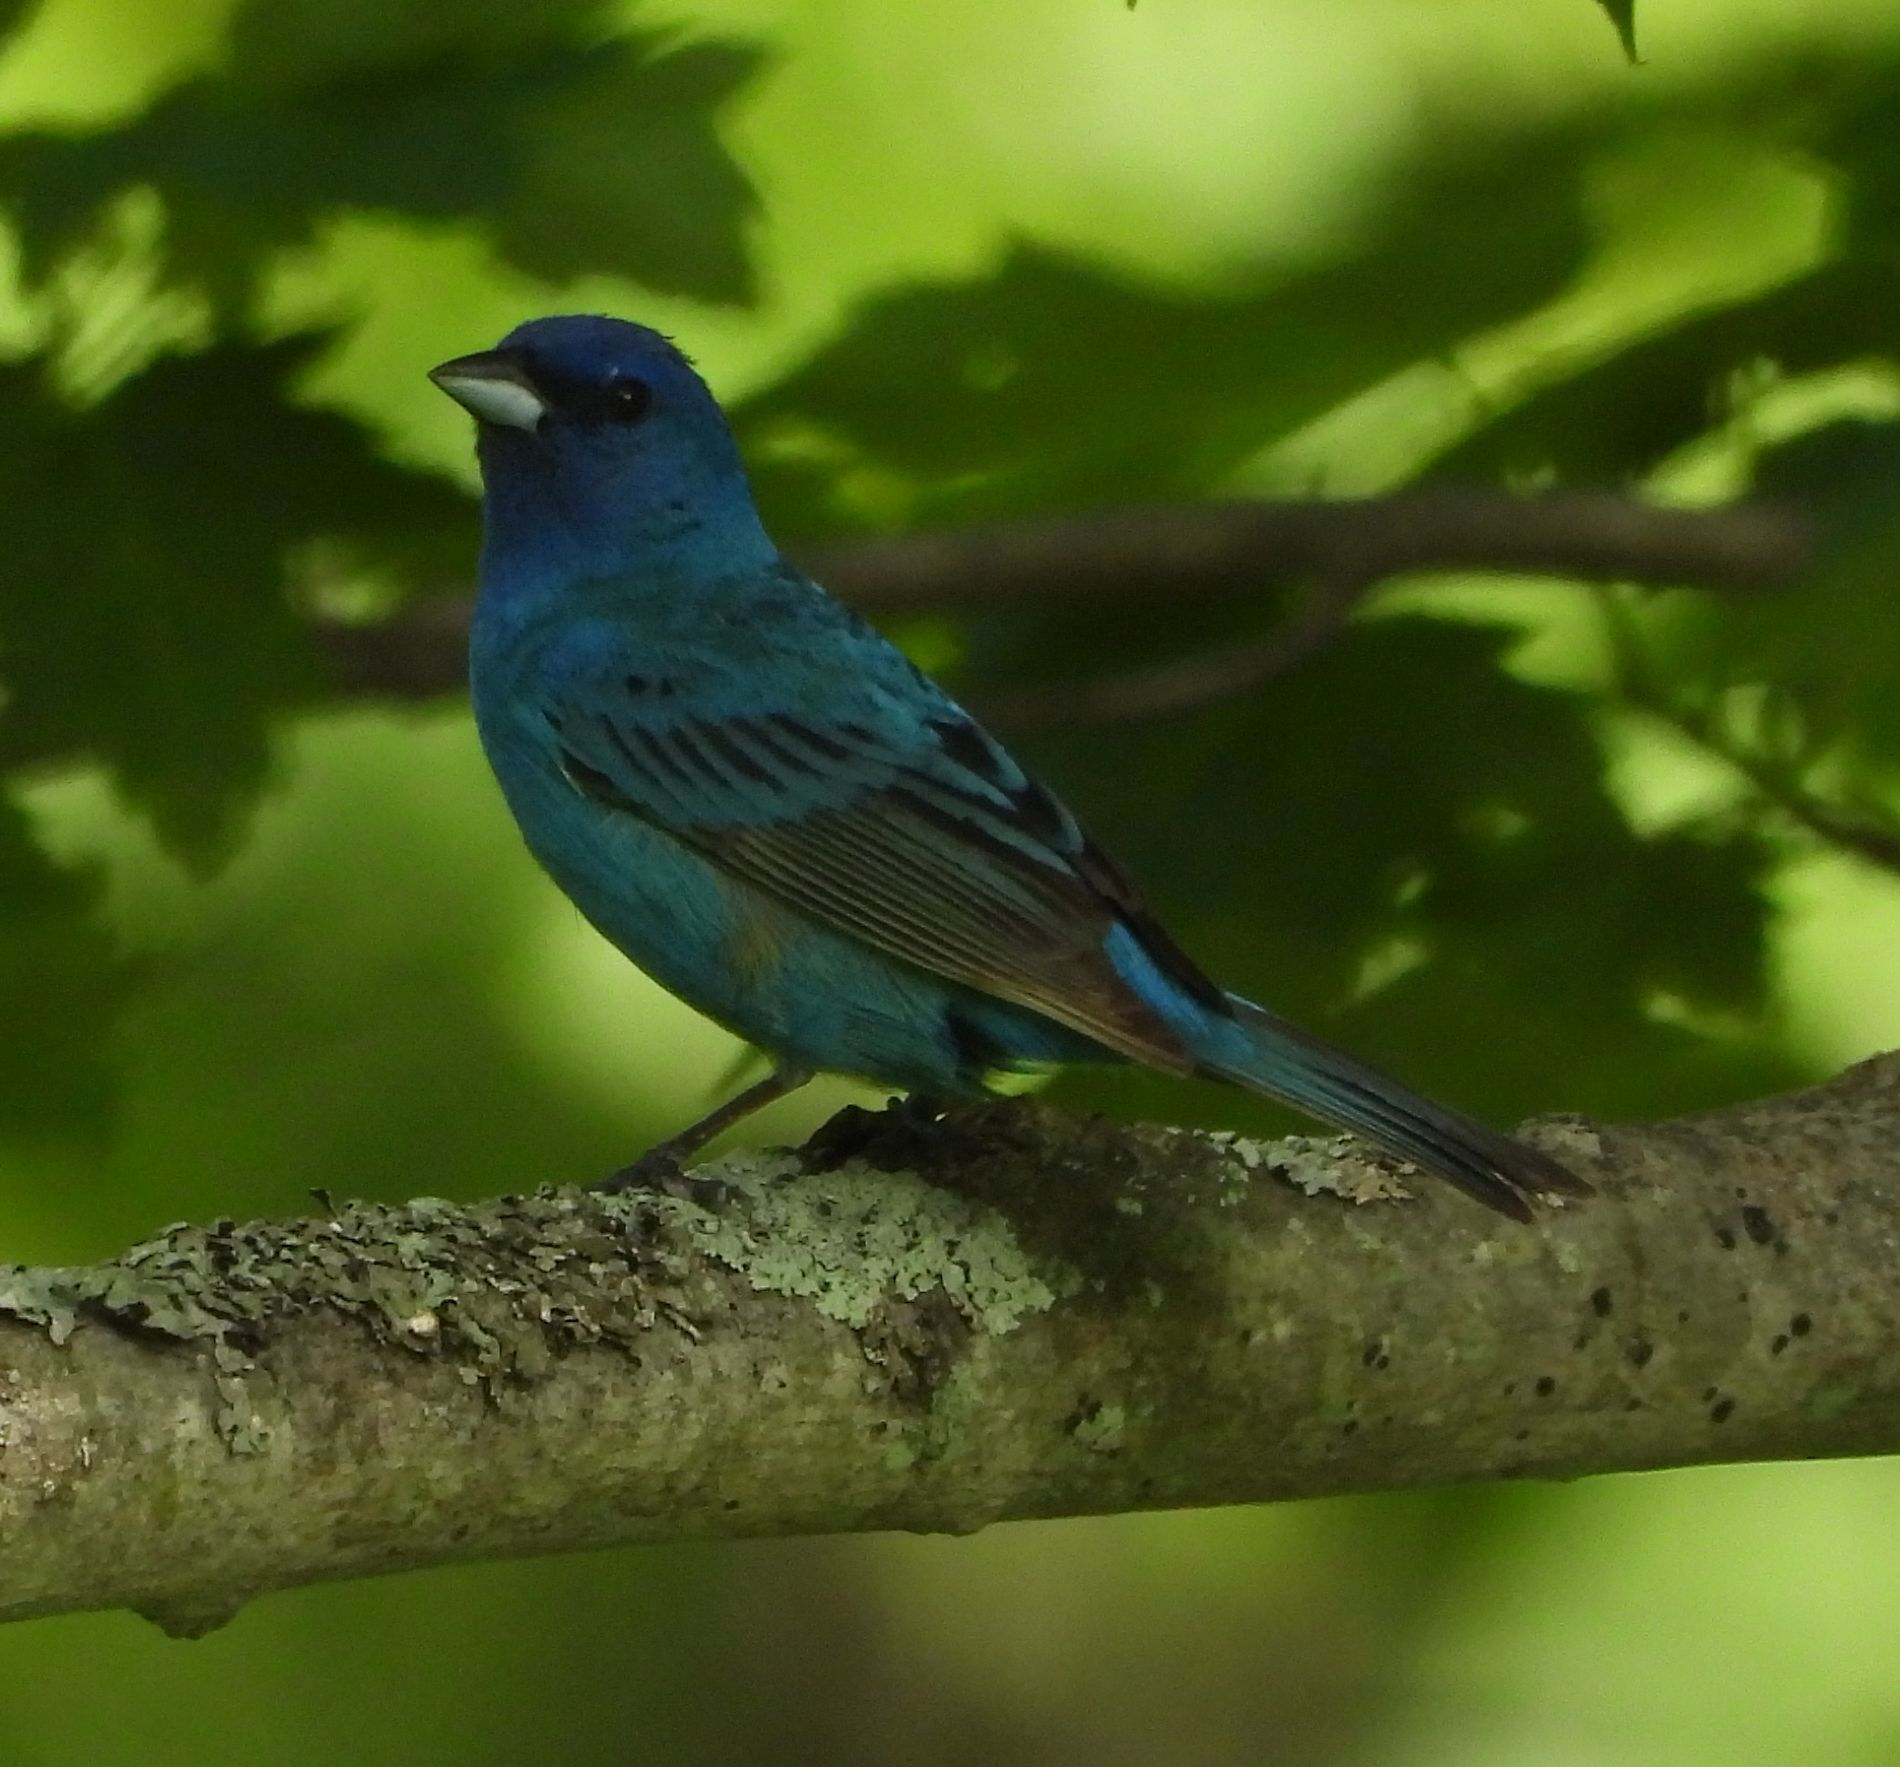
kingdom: Animalia
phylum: Chordata
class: Aves
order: Passeriformes
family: Cardinalidae
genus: Passerina
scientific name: Passerina cyanea
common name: Indigo bunting
